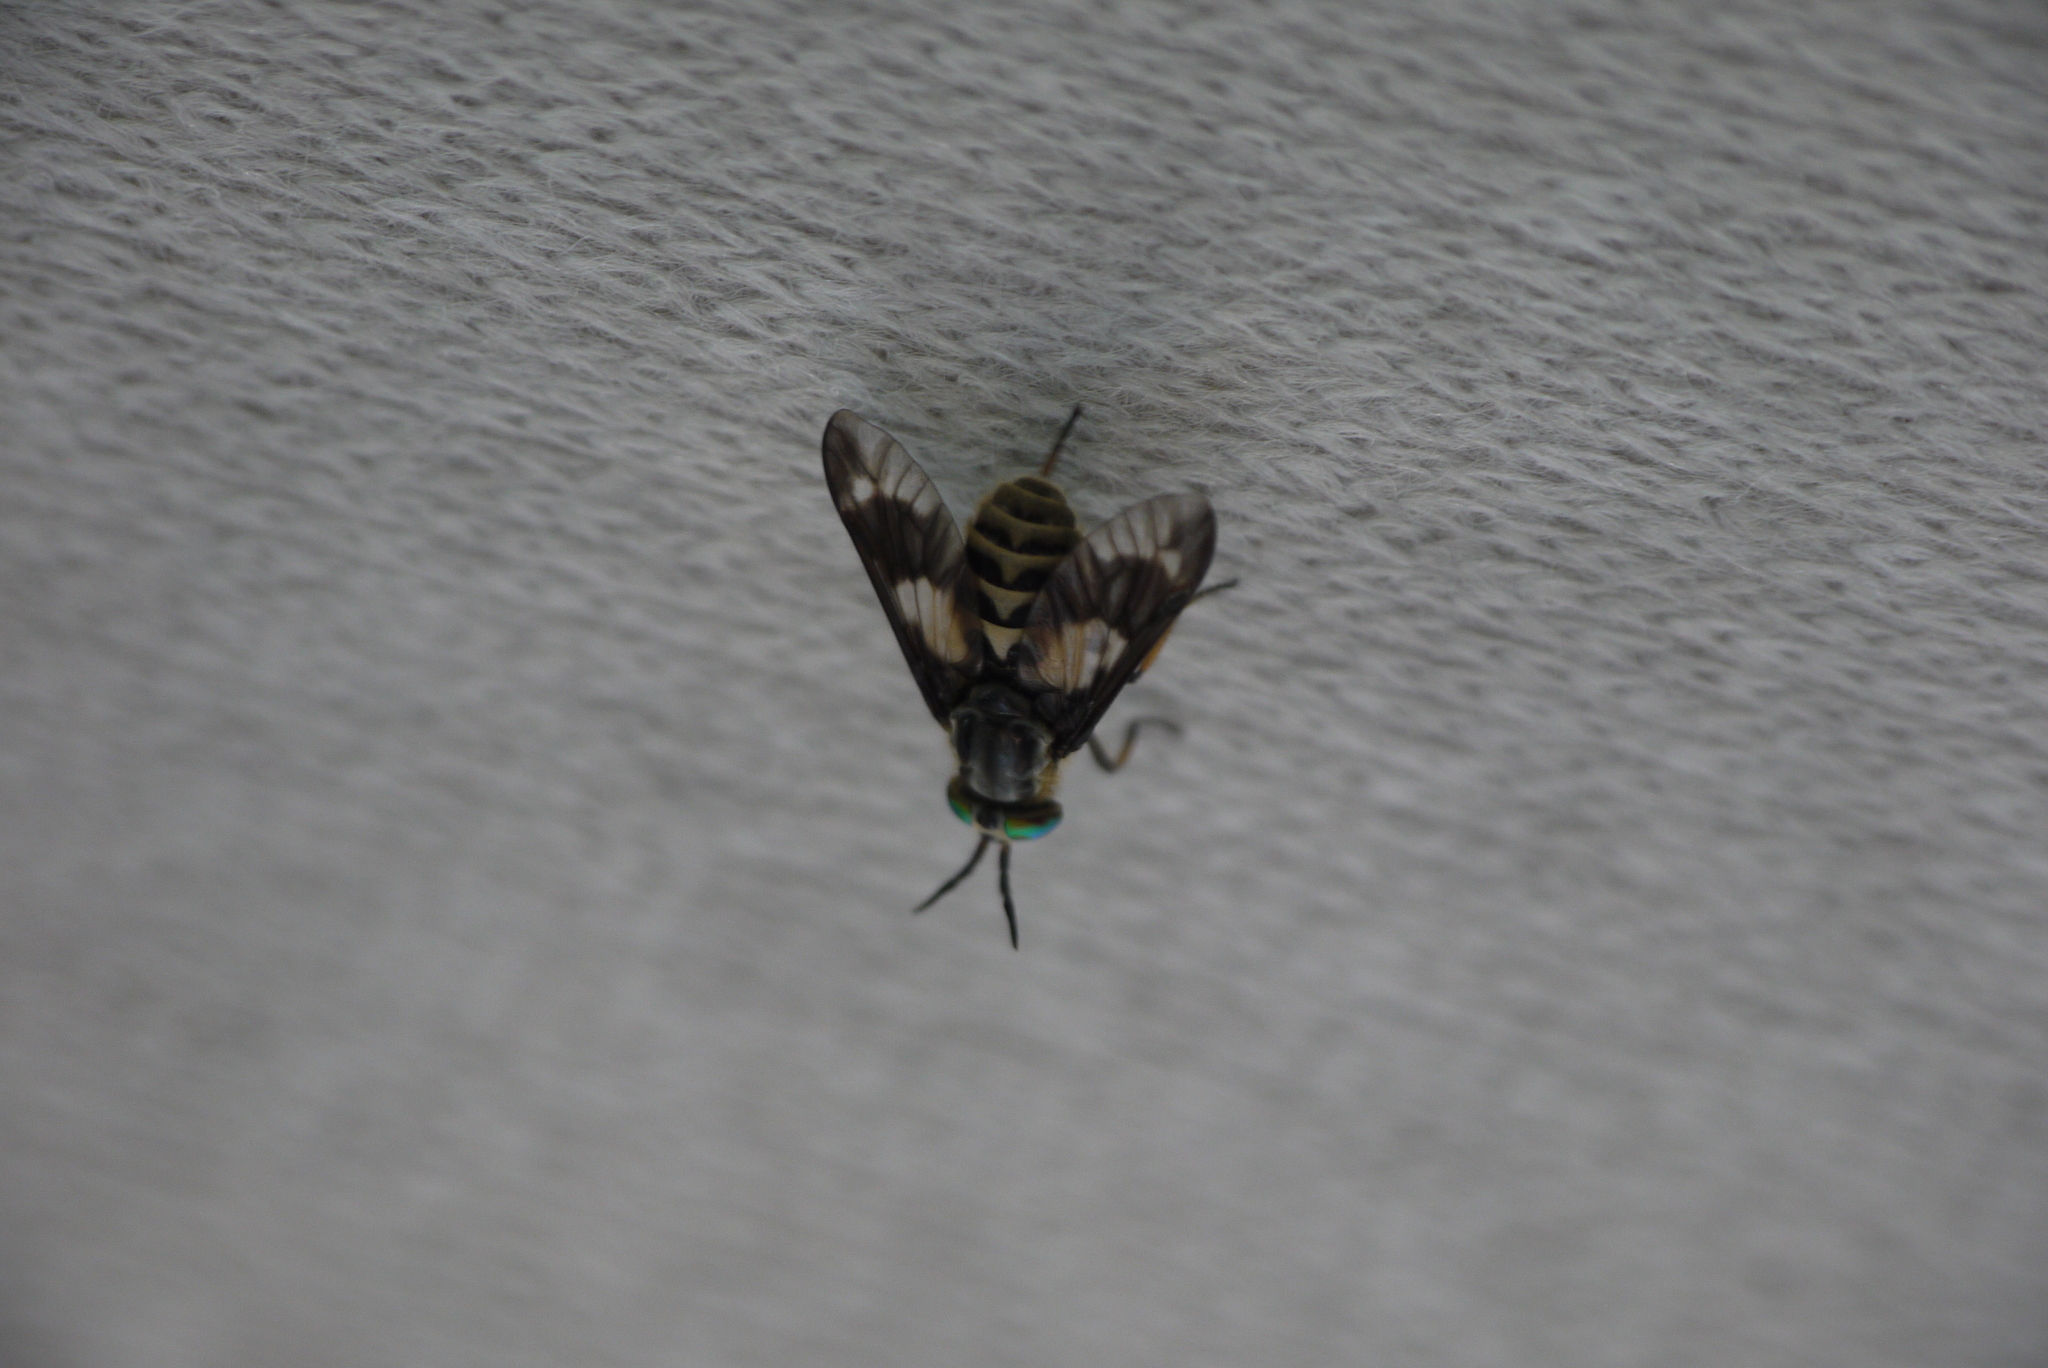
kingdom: Animalia
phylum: Arthropoda
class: Insecta
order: Diptera
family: Tabanidae
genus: Chrysops
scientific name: Chrysops relictus
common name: Twin-lobed deerfly
